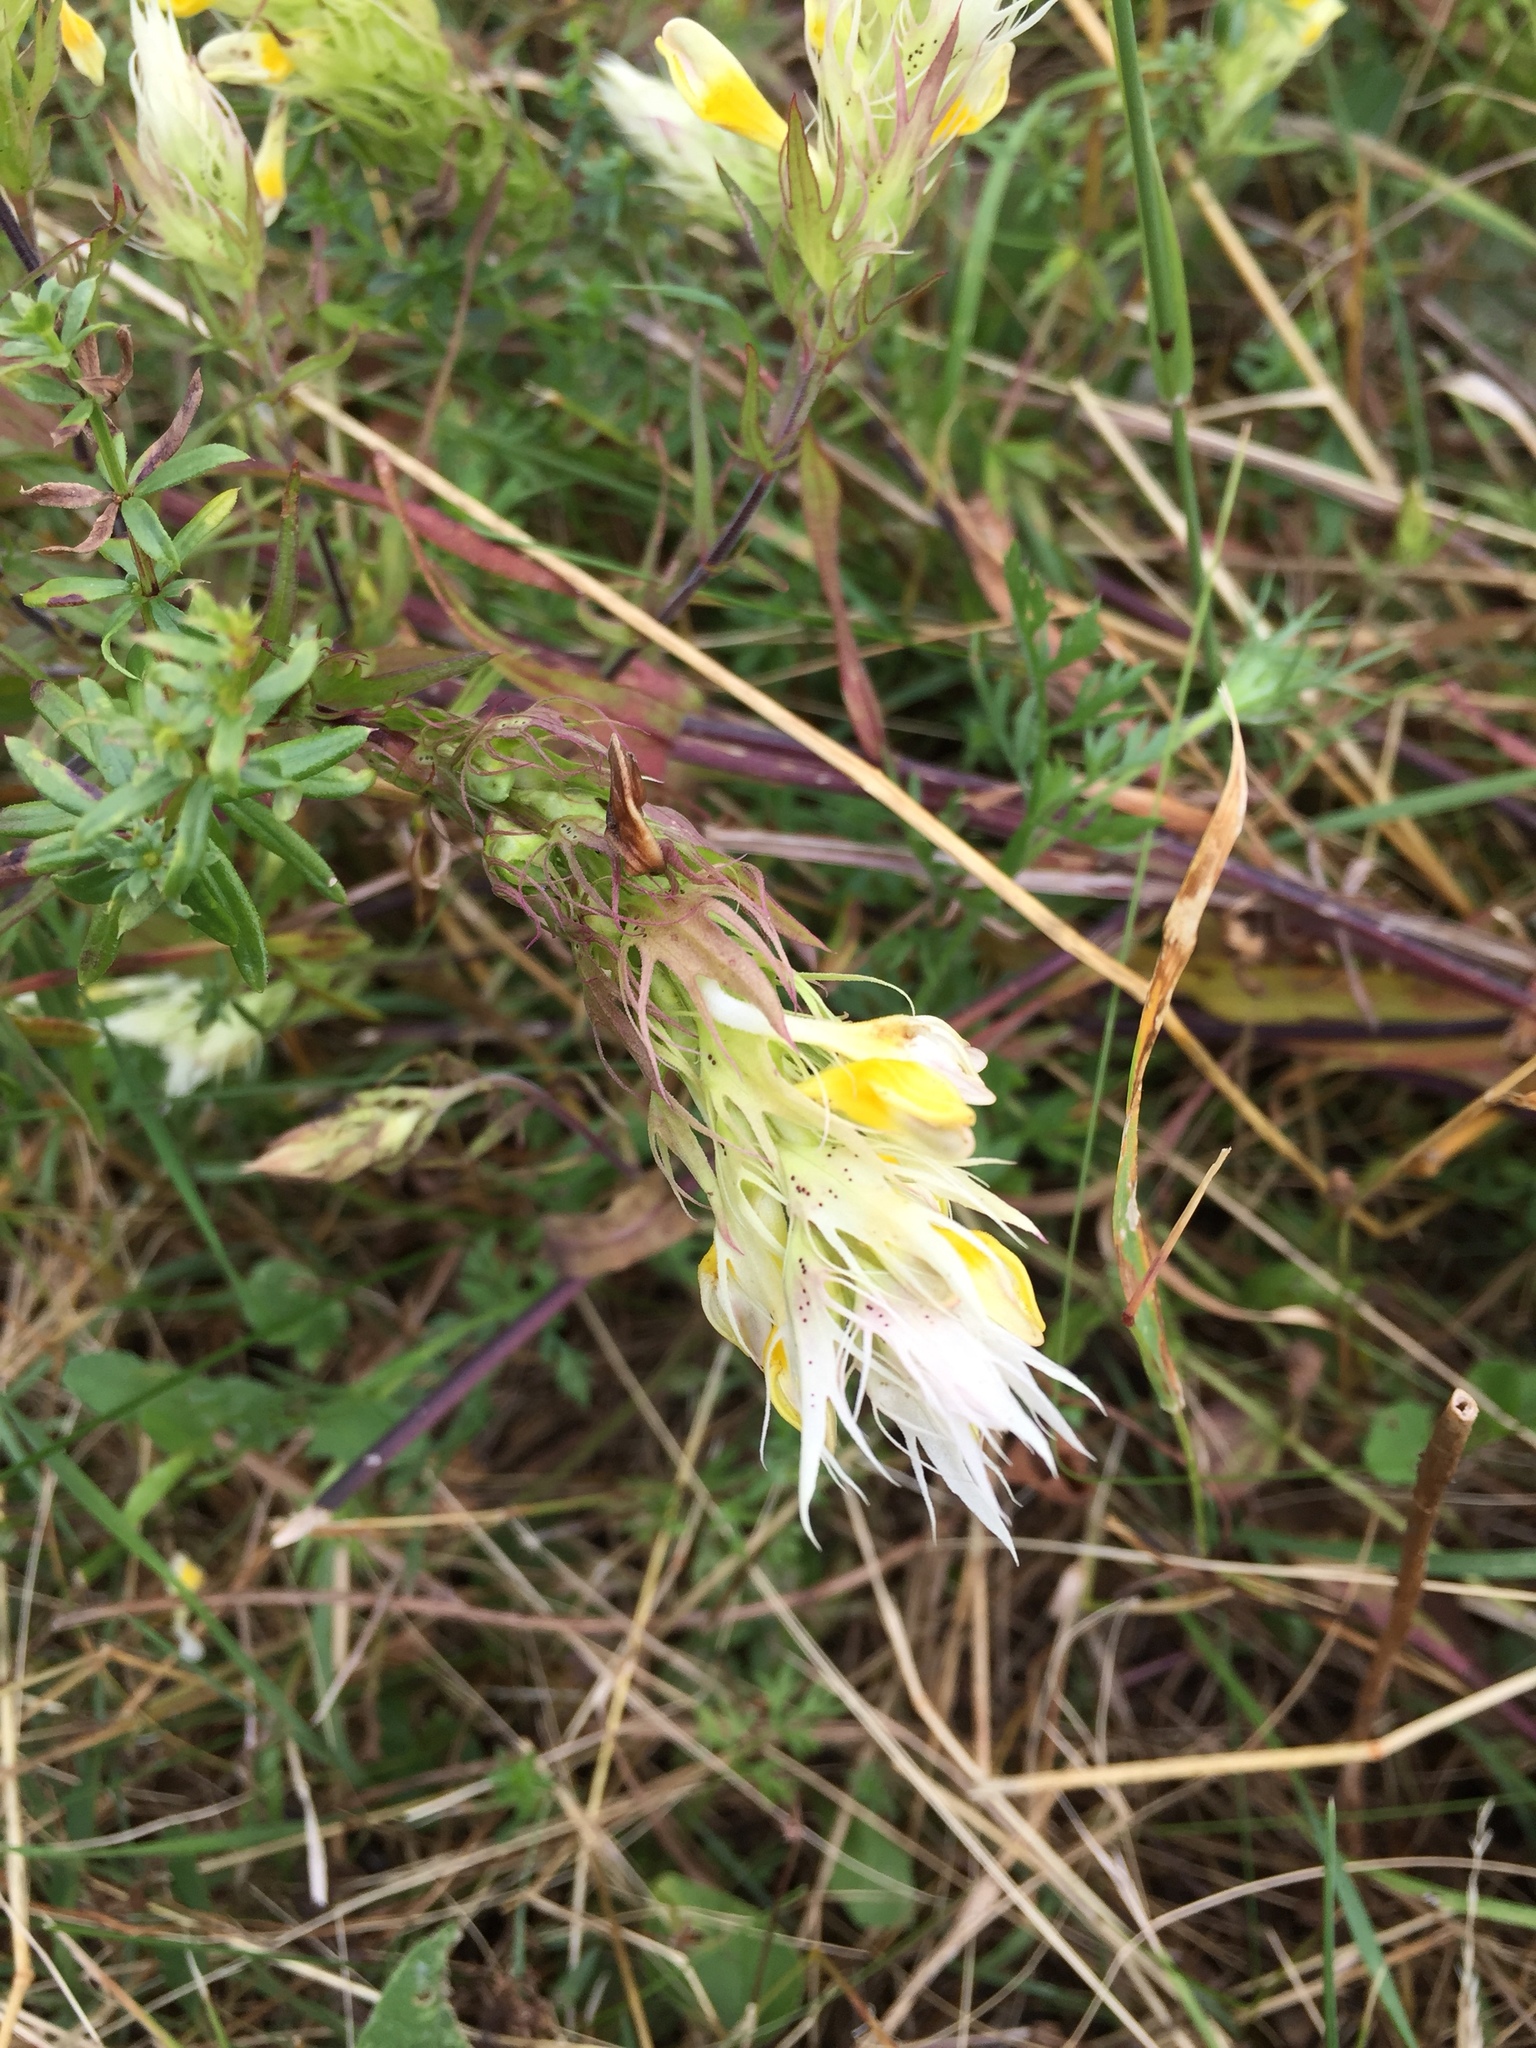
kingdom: Plantae
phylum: Tracheophyta
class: Magnoliopsida
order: Lamiales
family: Orobanchaceae
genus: Melampyrum
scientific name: Melampyrum arvense
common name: Field cow-wheat
